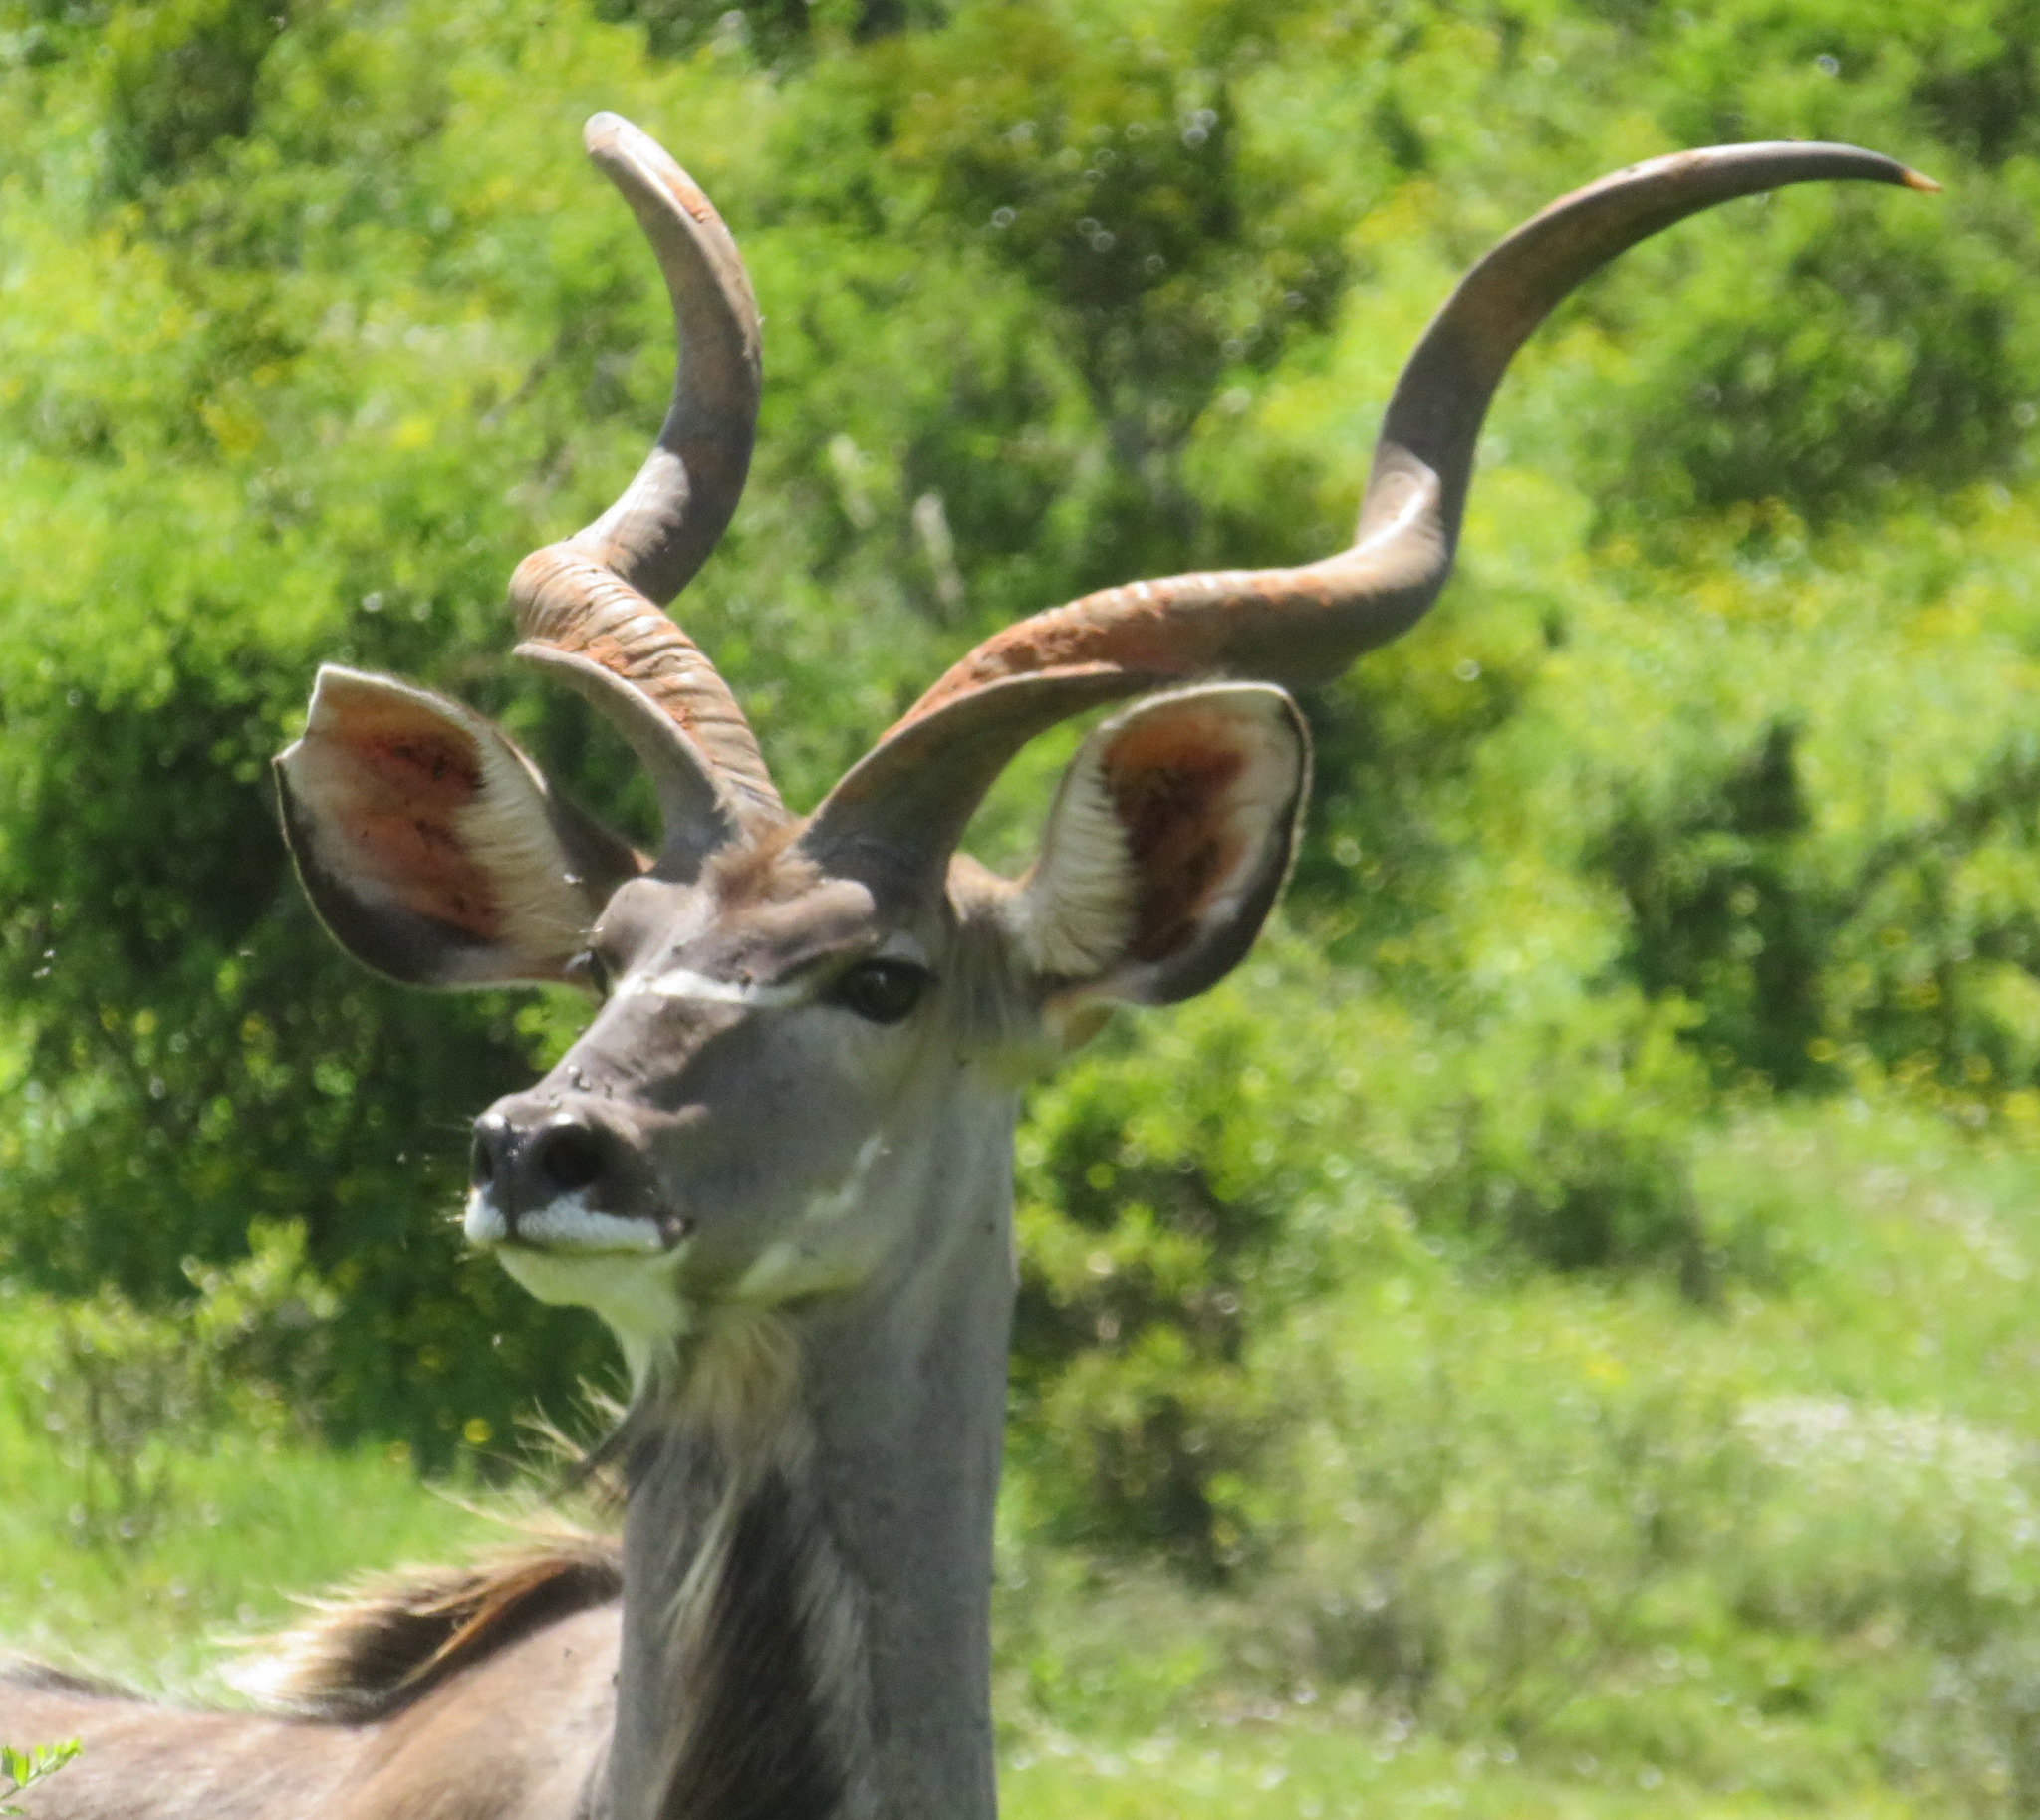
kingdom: Animalia
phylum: Chordata
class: Mammalia
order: Artiodactyla
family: Bovidae
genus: Tragelaphus
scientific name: Tragelaphus strepsiceros
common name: Greater kudu
